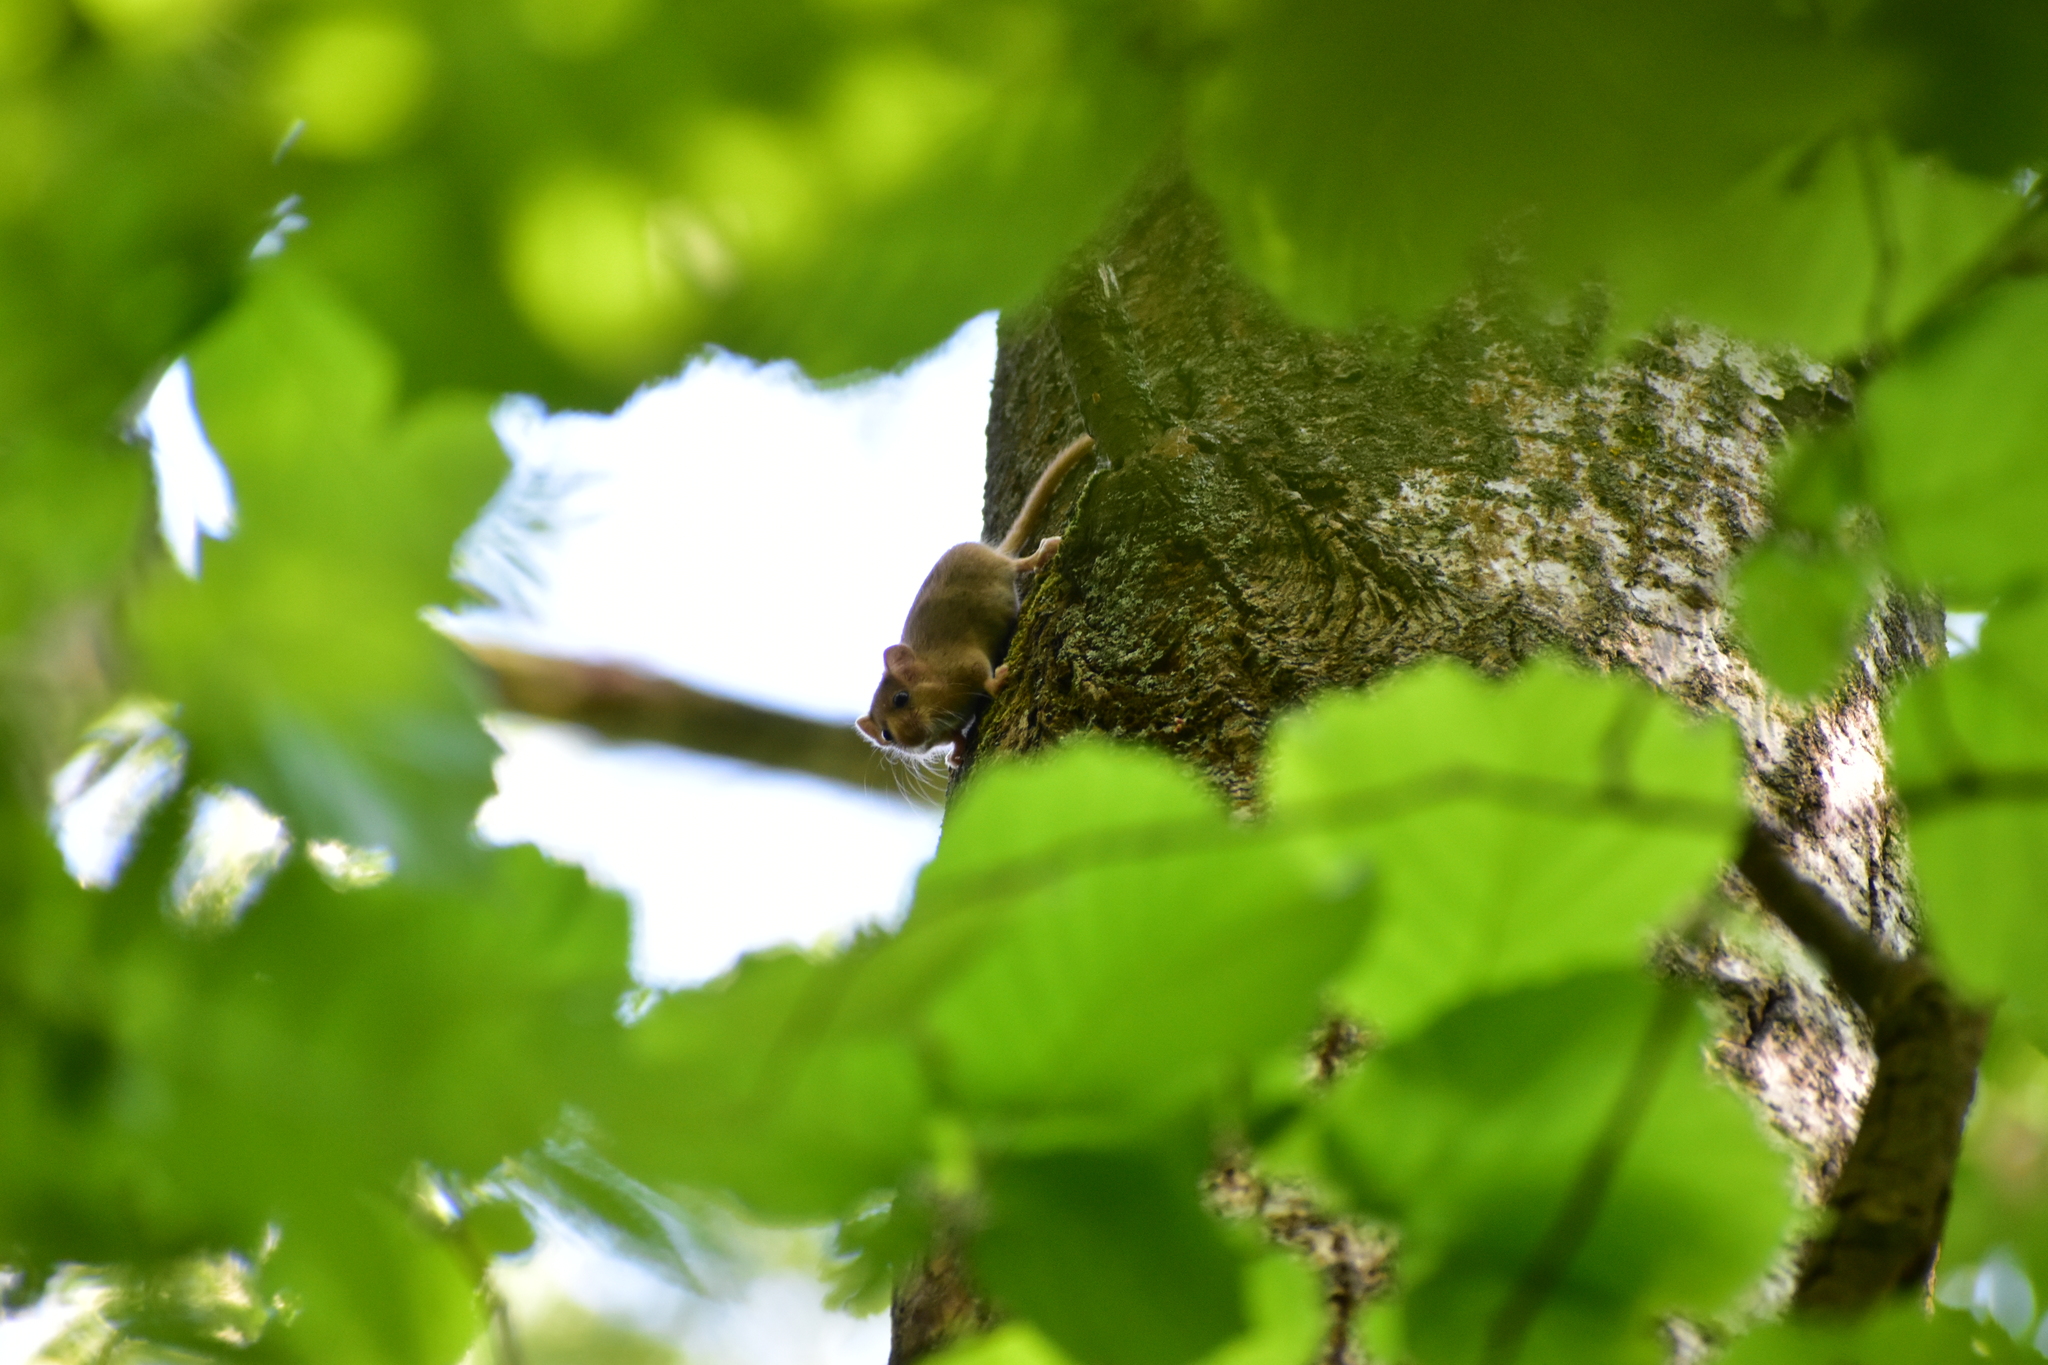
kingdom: Animalia
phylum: Chordata
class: Mammalia
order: Rodentia
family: Gliridae
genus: Muscardinus
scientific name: Muscardinus avellanarius
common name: Hazel dormouse
